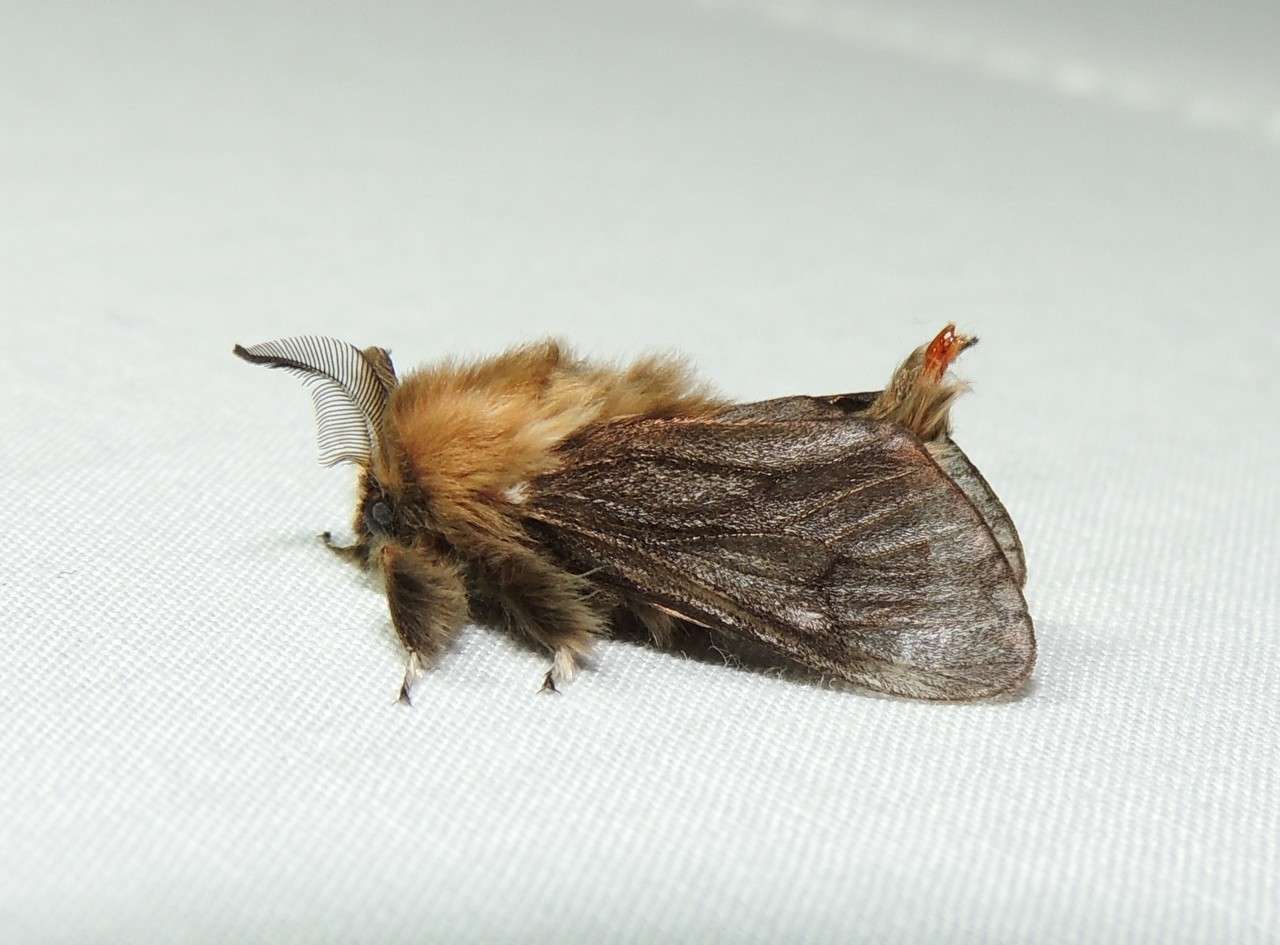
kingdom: Animalia
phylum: Arthropoda
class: Insecta
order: Lepidoptera
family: Psychidae
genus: Clania
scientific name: Clania ignobilis
